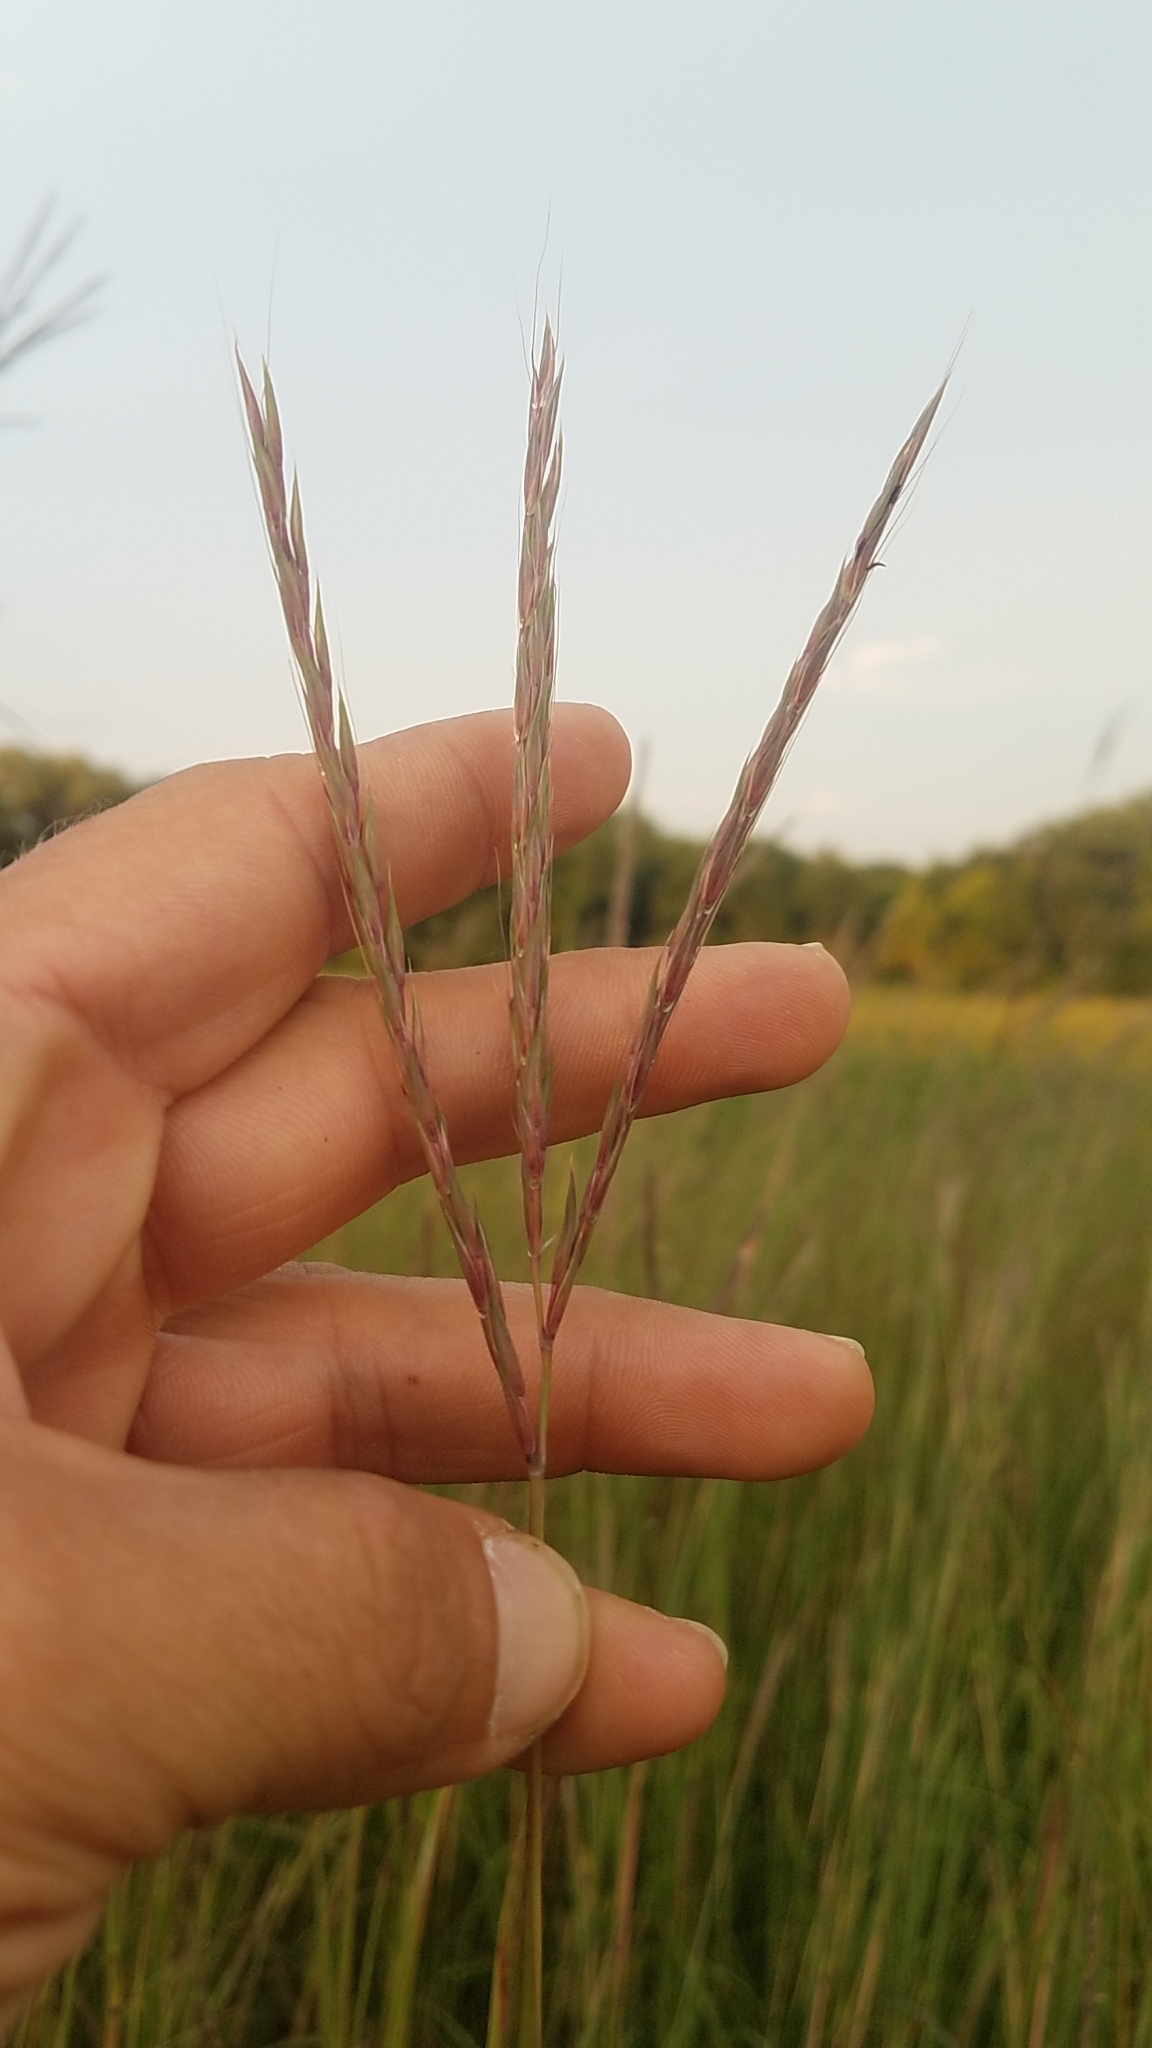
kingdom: Plantae
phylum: Tracheophyta
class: Liliopsida
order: Poales
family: Poaceae
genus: Andropogon
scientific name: Andropogon gerardi
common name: Big bluestem
